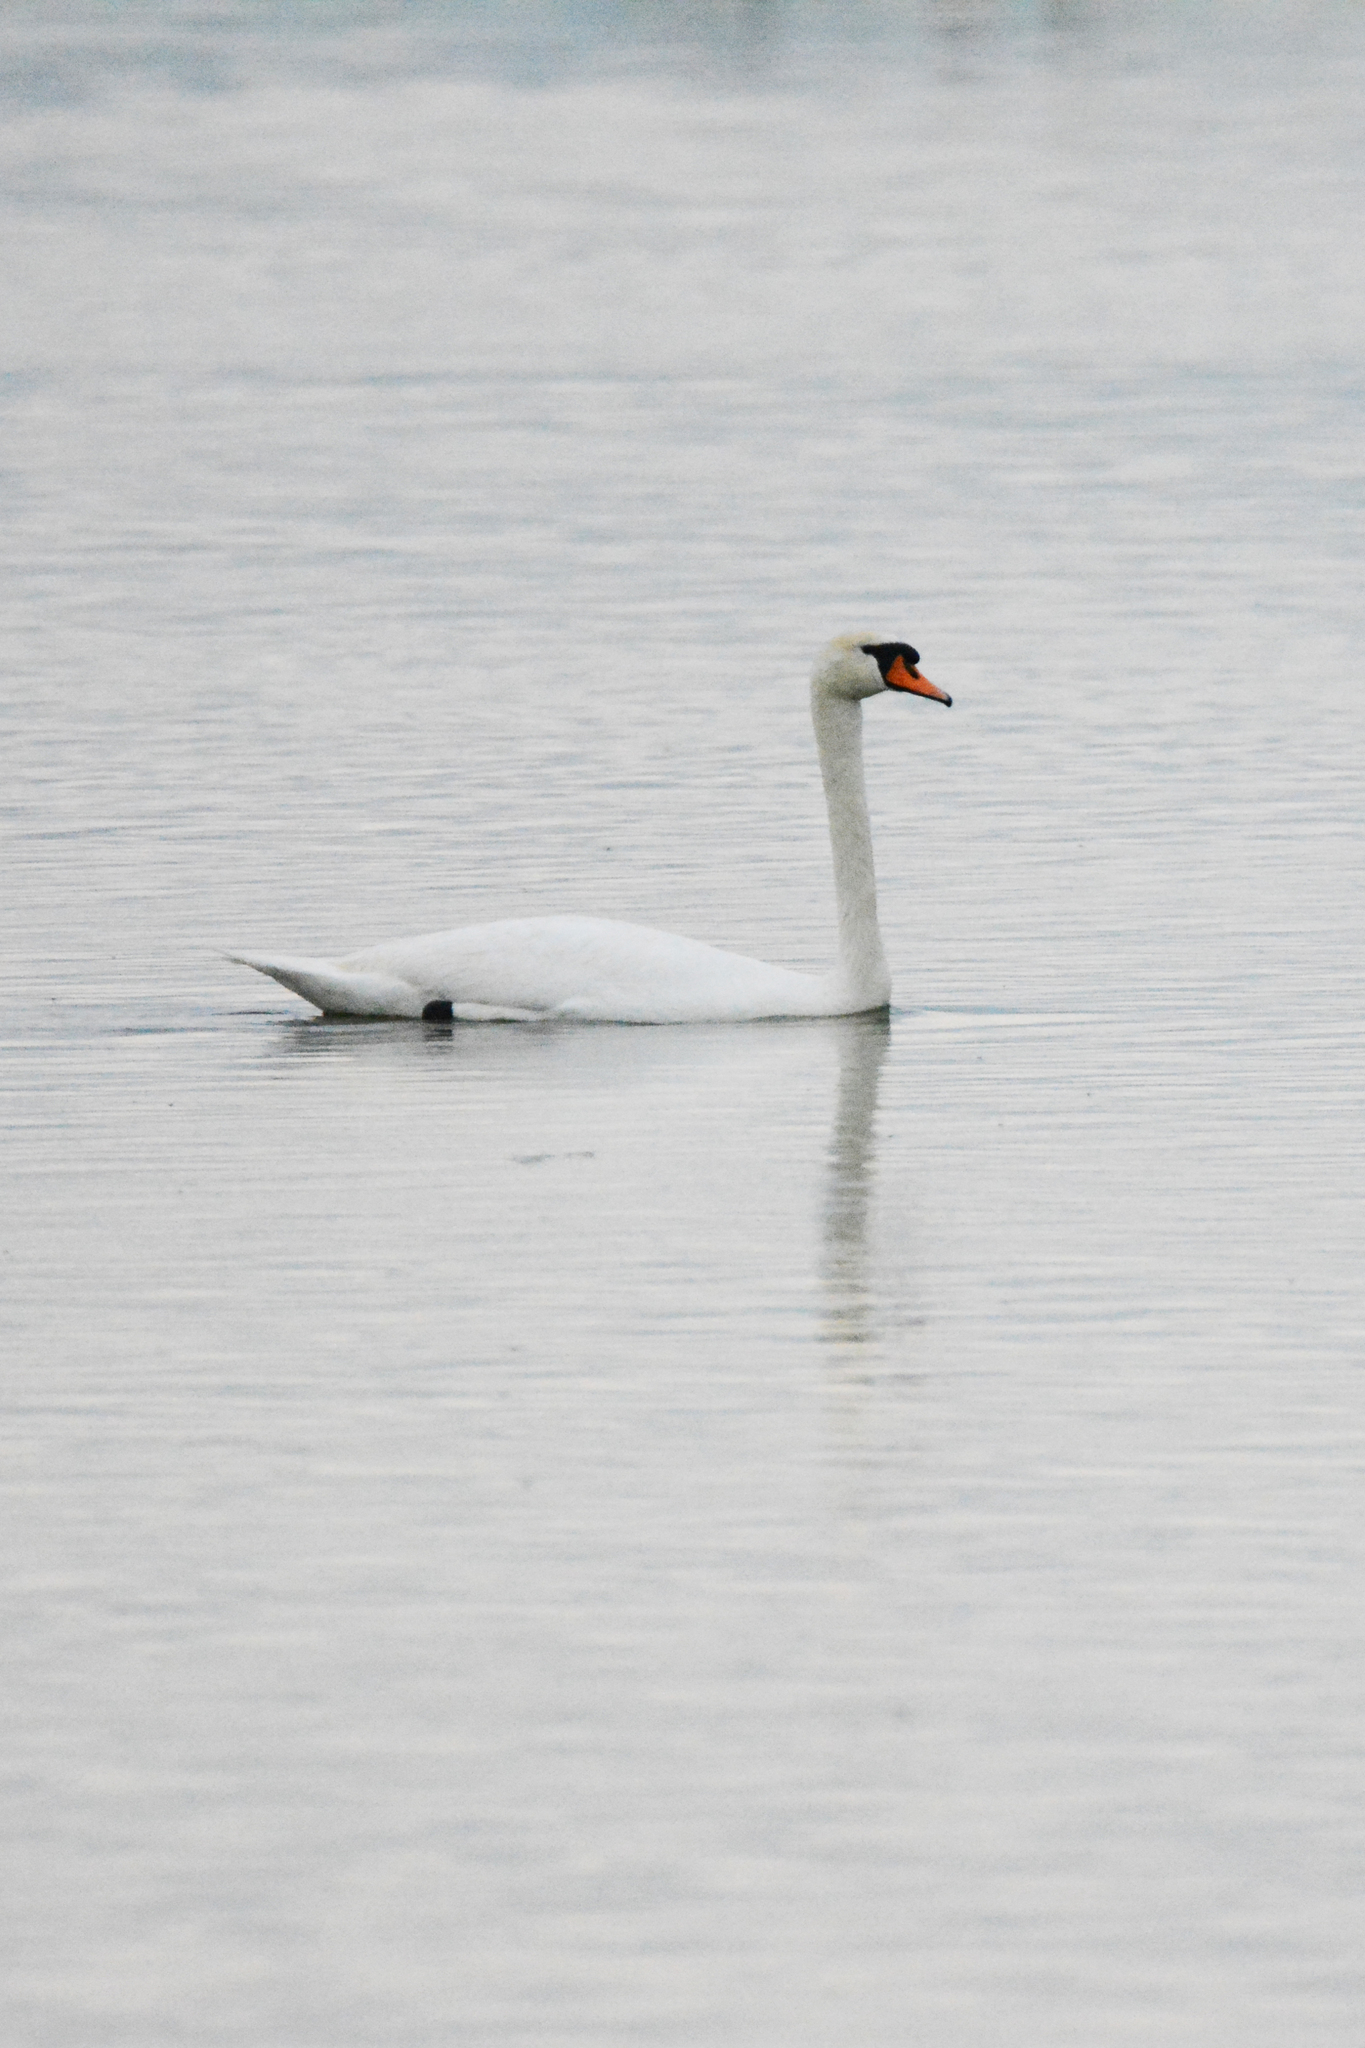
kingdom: Animalia
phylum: Chordata
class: Aves
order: Anseriformes
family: Anatidae
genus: Cygnus
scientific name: Cygnus olor
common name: Mute swan
